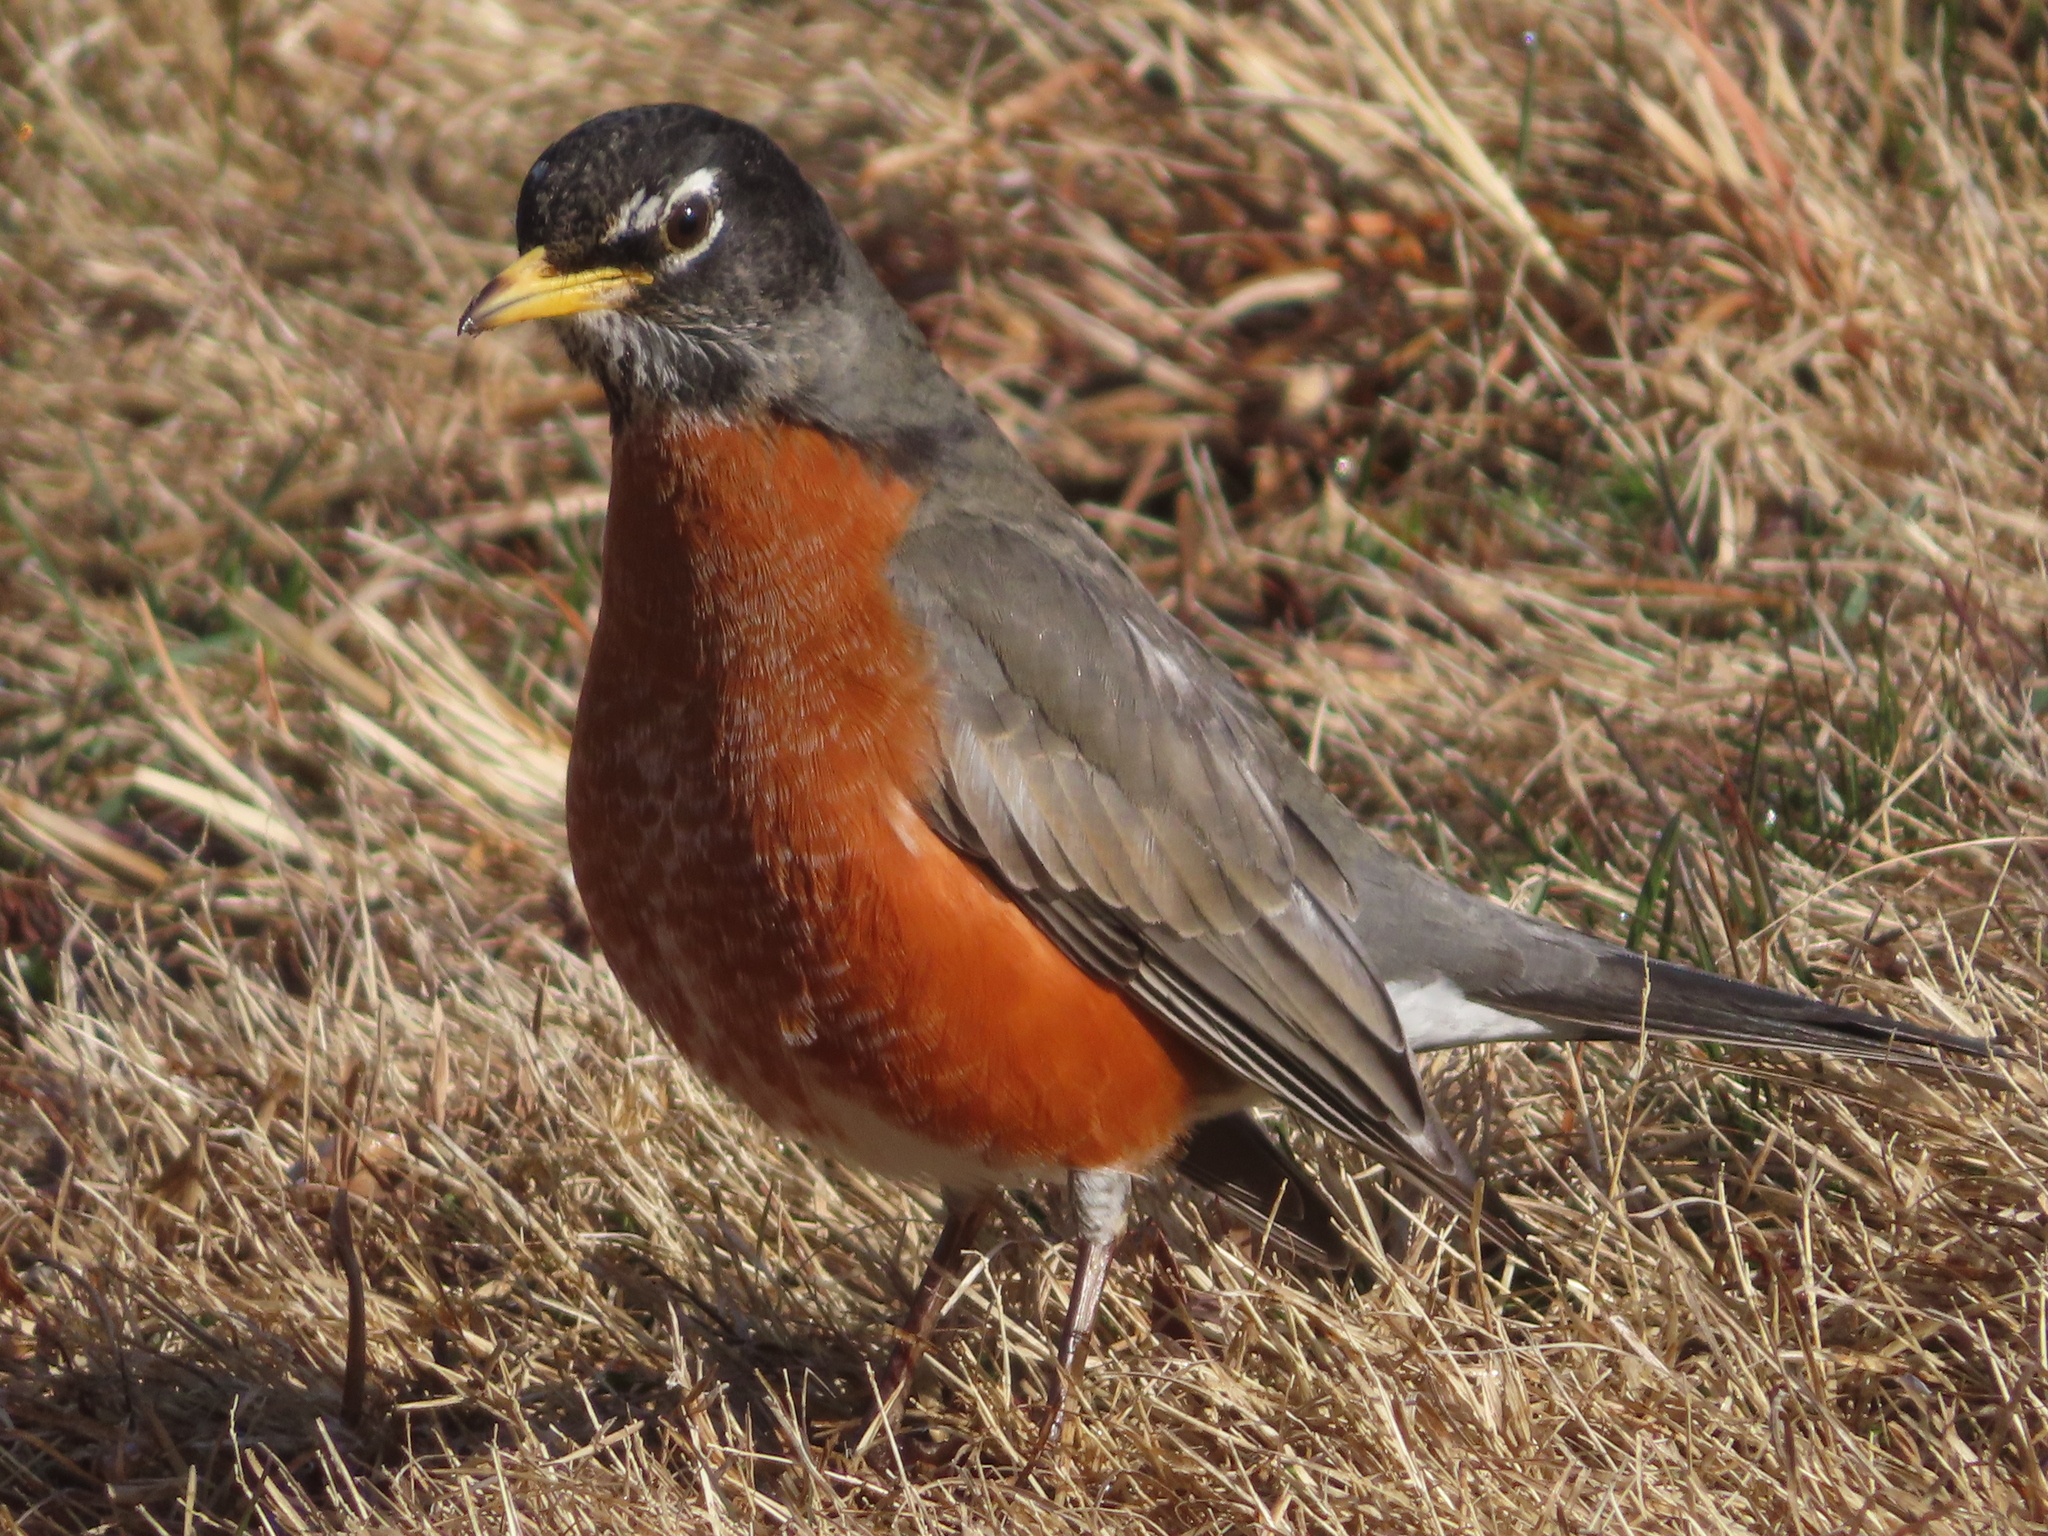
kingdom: Animalia
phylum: Chordata
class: Aves
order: Passeriformes
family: Turdidae
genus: Turdus
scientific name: Turdus migratorius
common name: American robin
